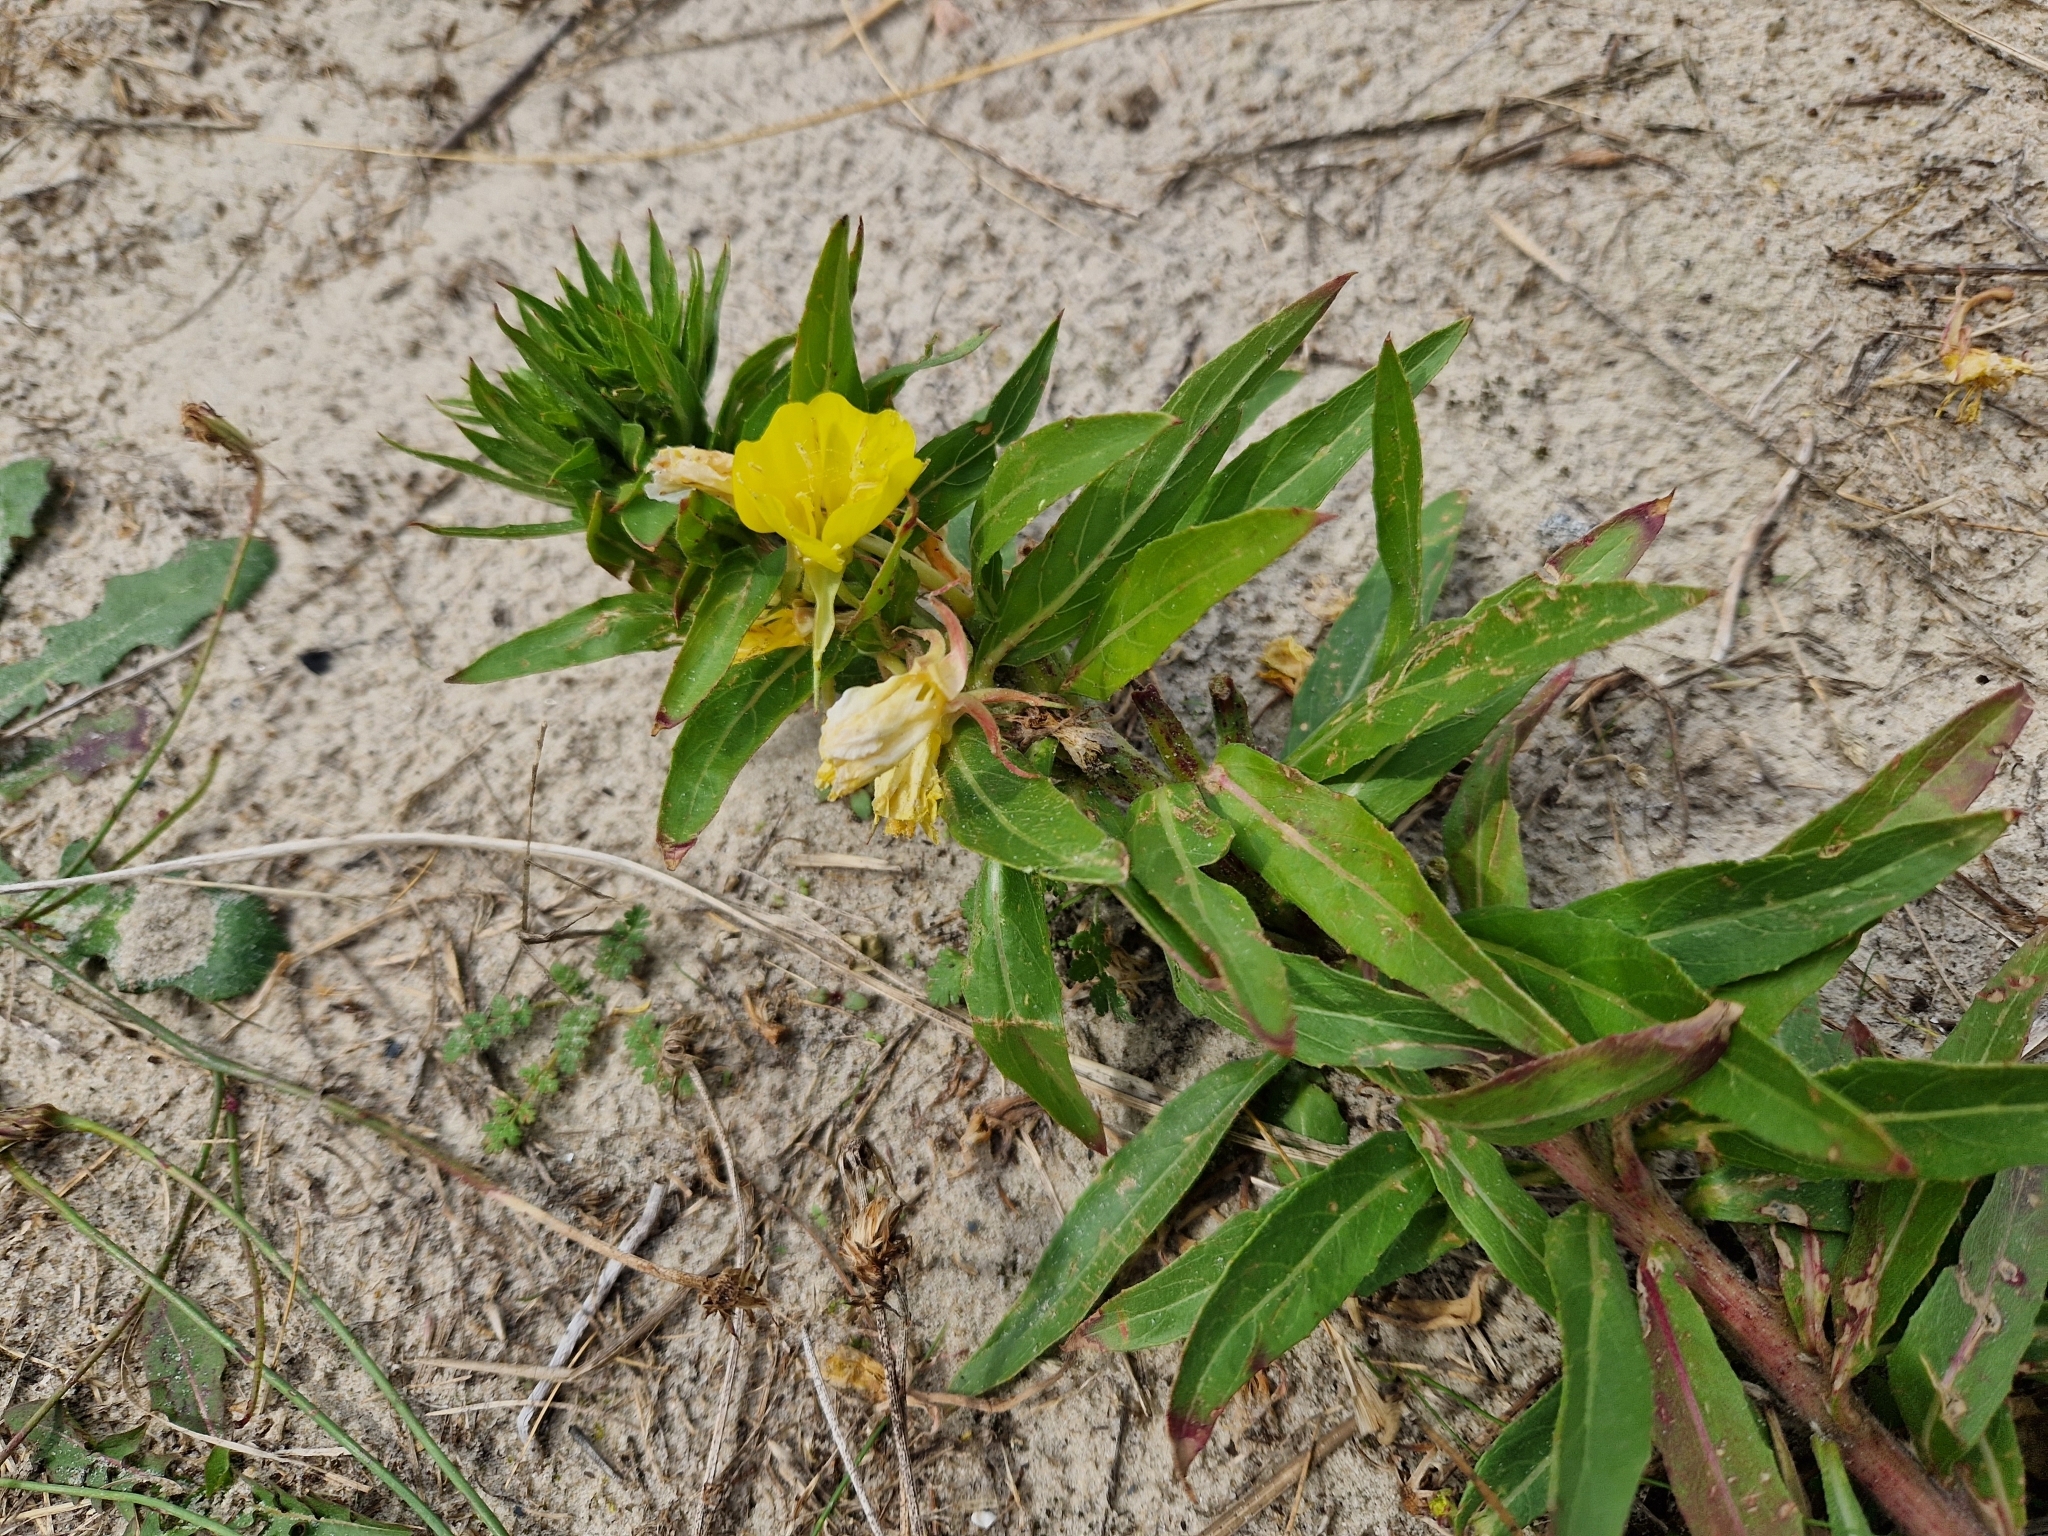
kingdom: Plantae
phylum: Tracheophyta
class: Magnoliopsida
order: Myrtales
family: Onagraceae
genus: Oenothera
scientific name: Oenothera oakesiana
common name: Oakes' evening-primrose
